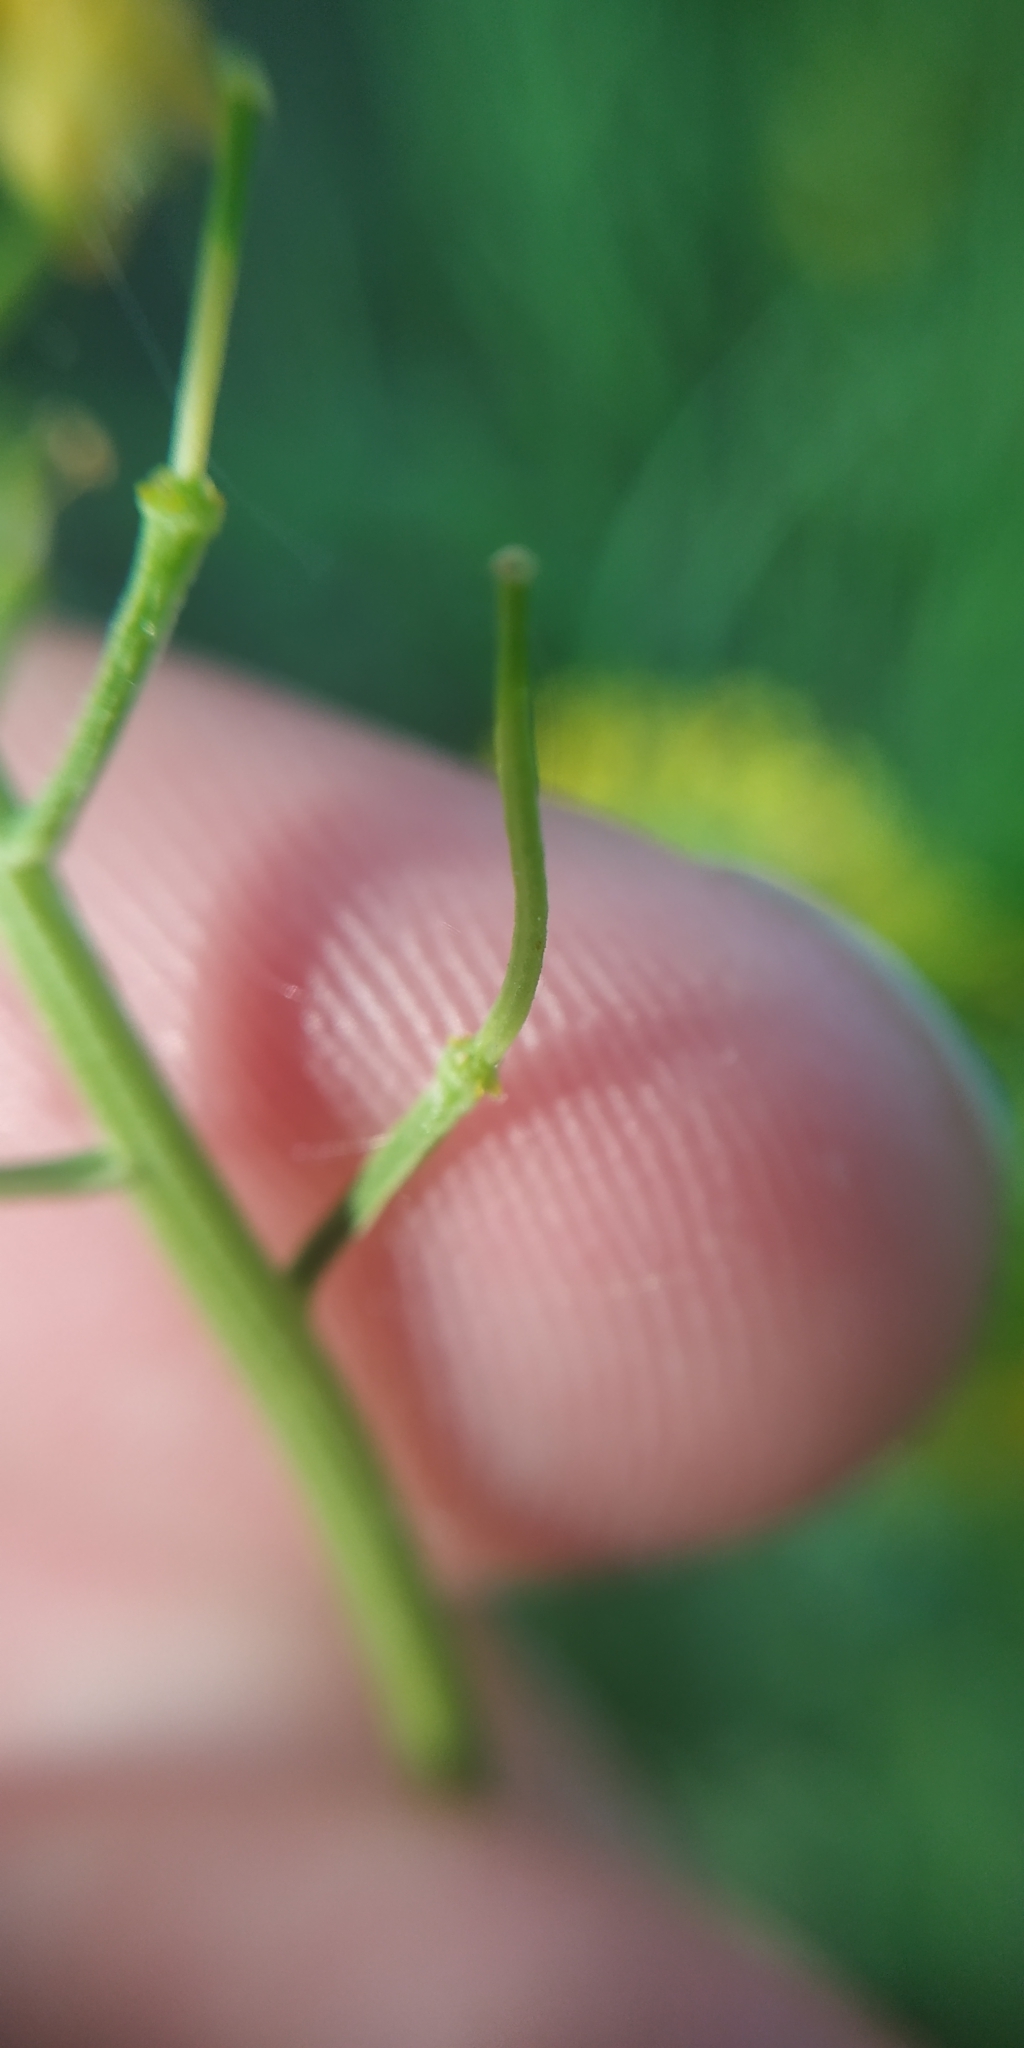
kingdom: Plantae
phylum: Tracheophyta
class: Magnoliopsida
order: Brassicales
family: Brassicaceae
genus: Barbarea
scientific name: Barbarea vulgaris
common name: Cressy-greens
